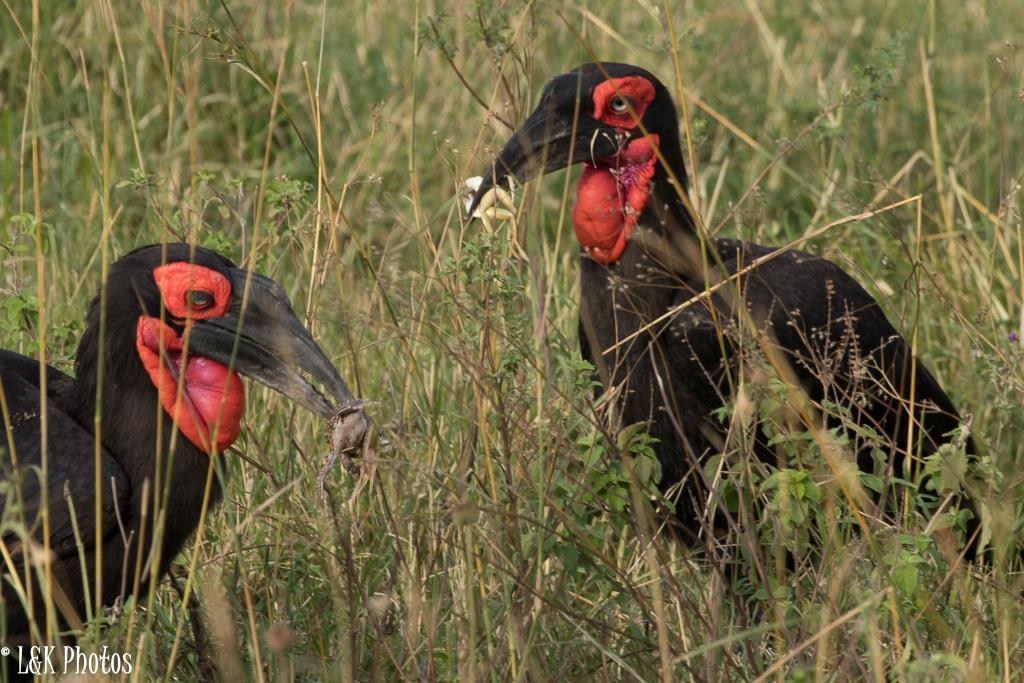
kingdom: Animalia
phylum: Chordata
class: Aves
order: Bucerotiformes
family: Bucorvidae
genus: Bucorvus
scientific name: Bucorvus leadbeateri
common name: Southern ground-hornbill
